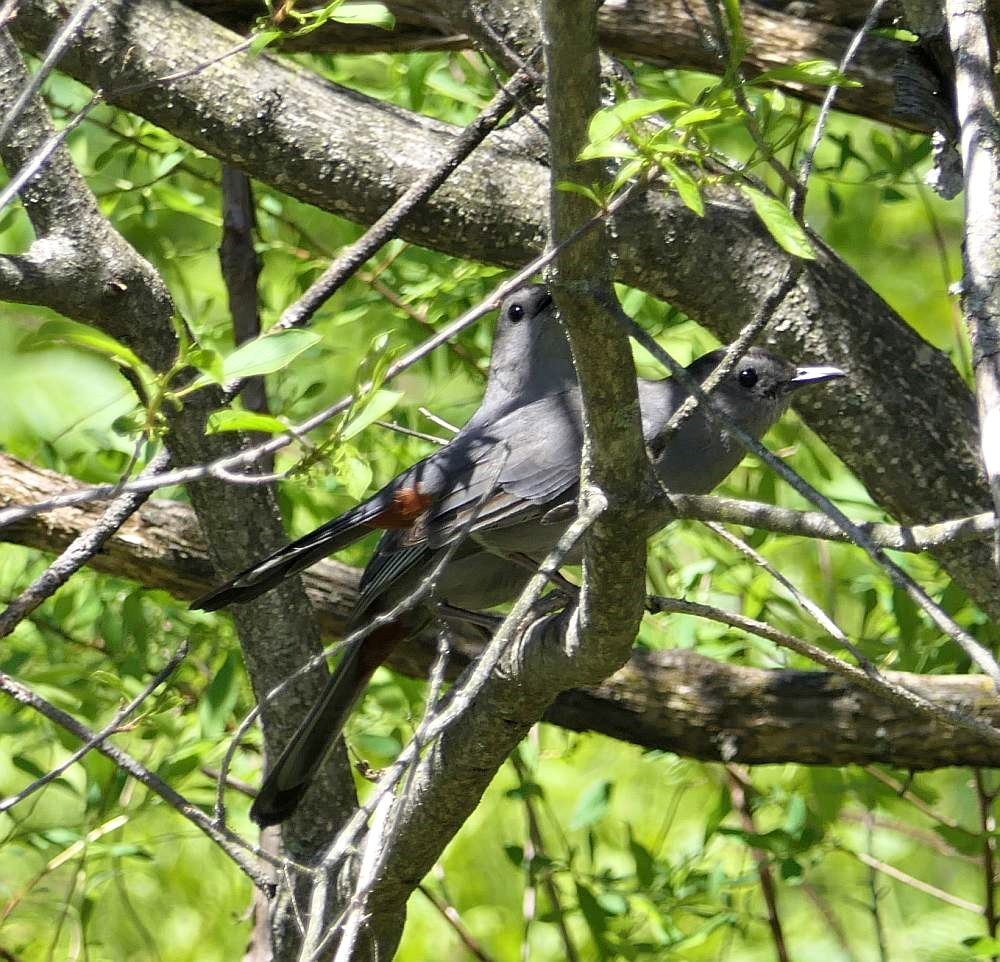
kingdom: Animalia
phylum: Chordata
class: Aves
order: Passeriformes
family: Mimidae
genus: Dumetella
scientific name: Dumetella carolinensis
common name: Gray catbird
